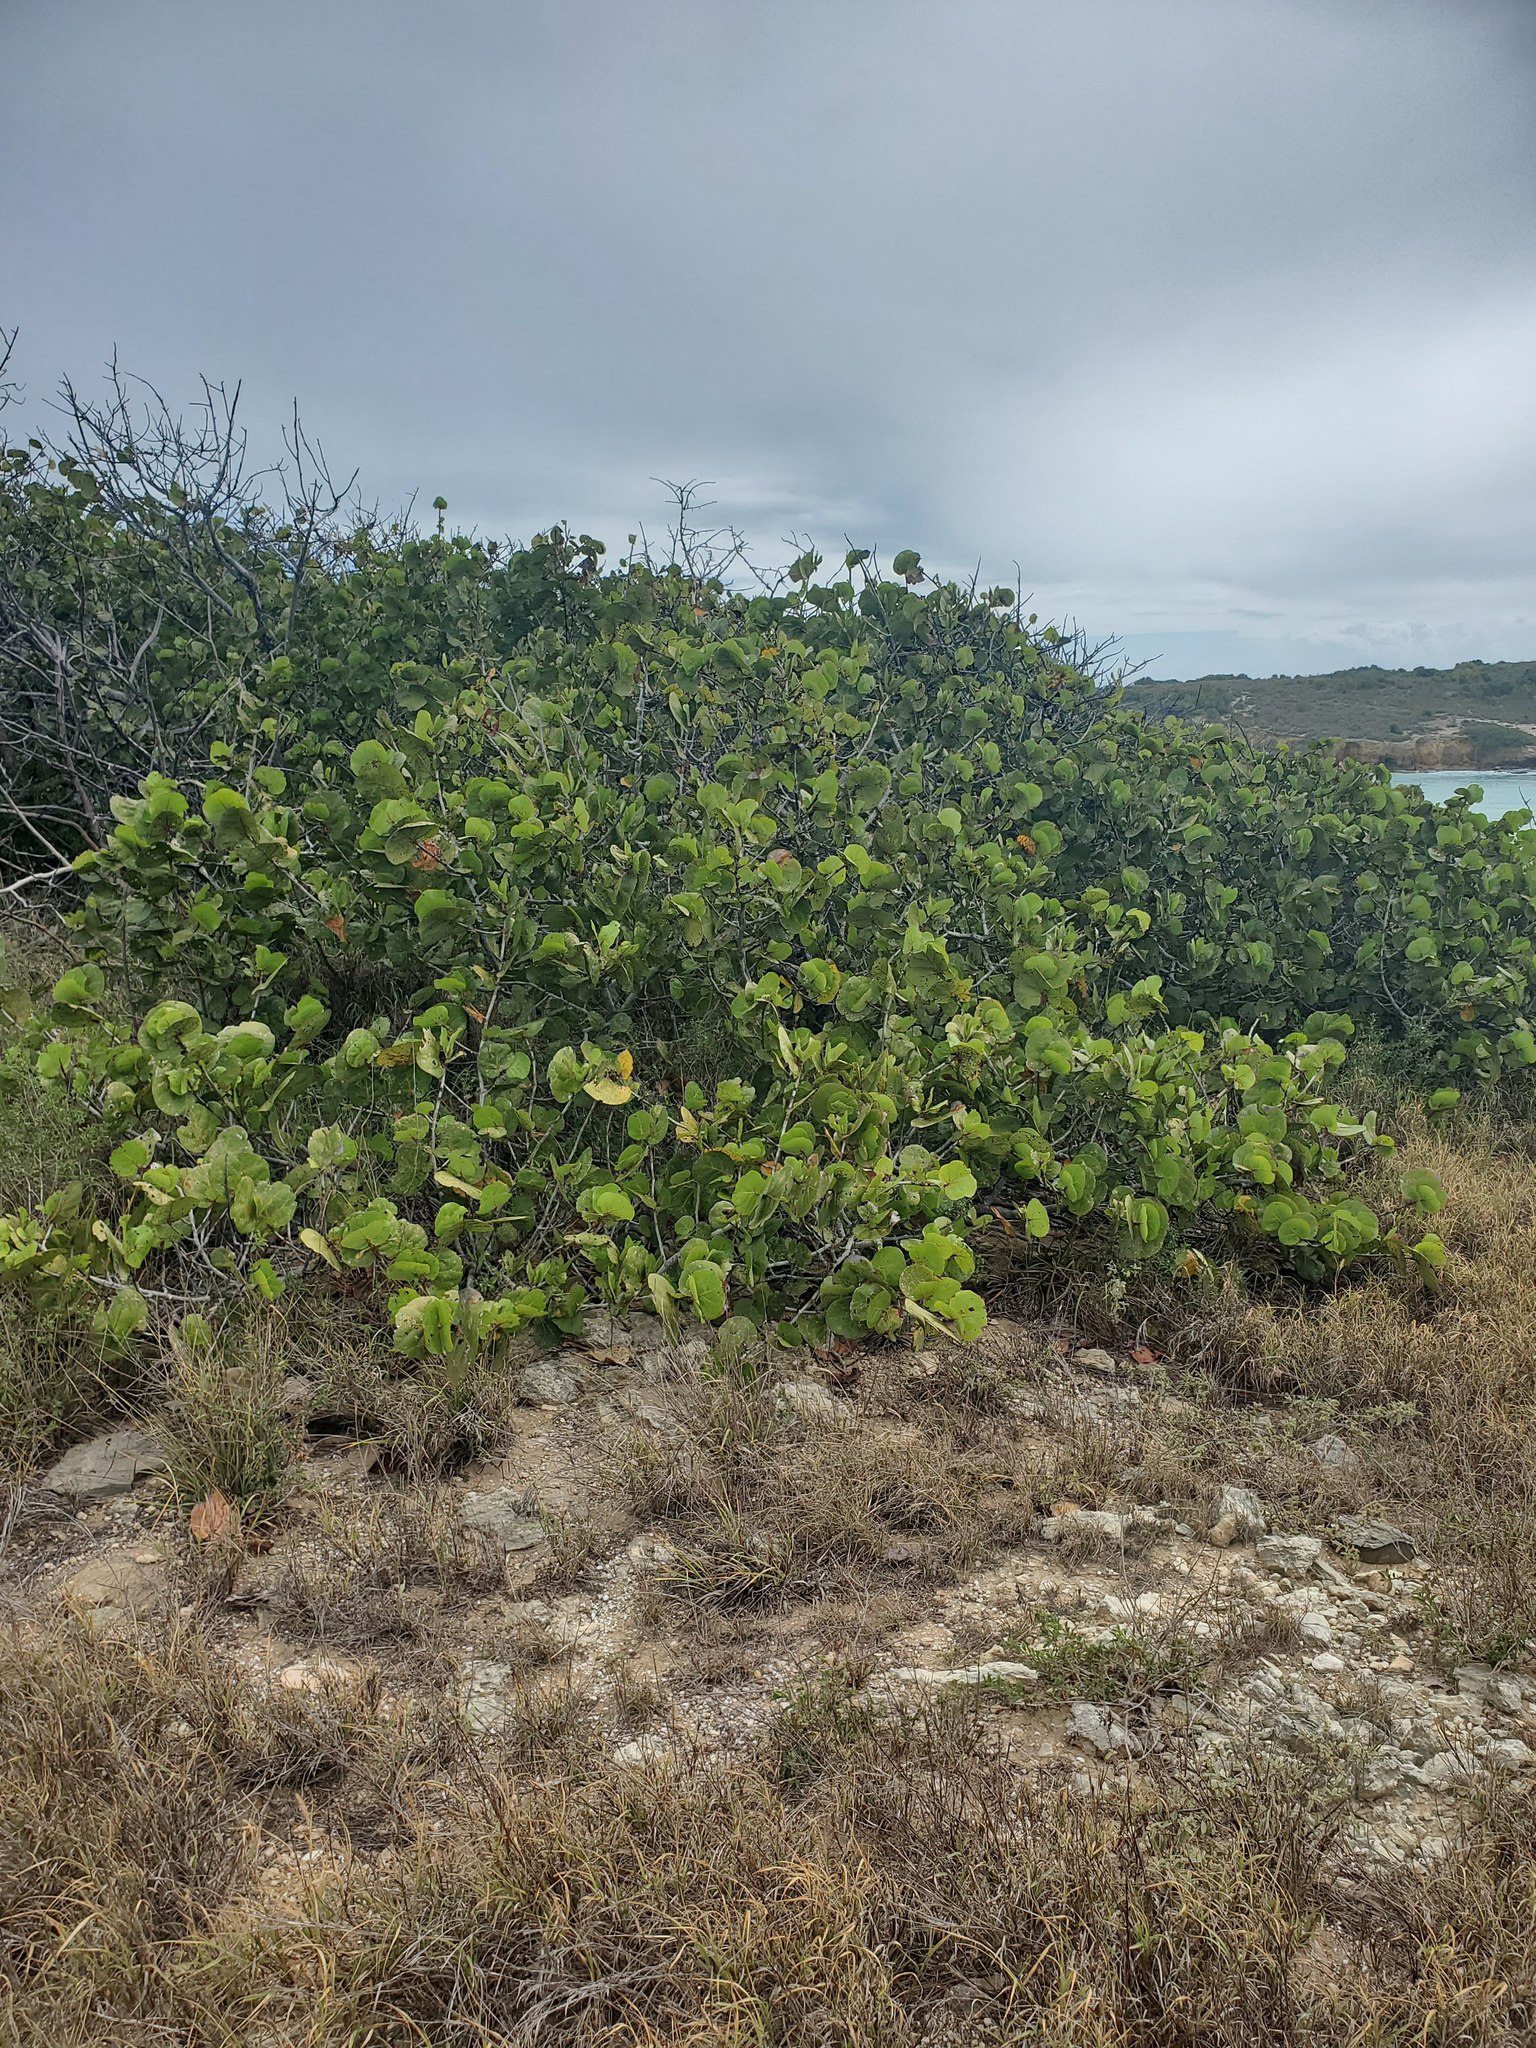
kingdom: Plantae
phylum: Tracheophyta
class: Magnoliopsida
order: Caryophyllales
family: Polygonaceae
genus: Coccoloba
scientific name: Coccoloba uvifera
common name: Seagrape
